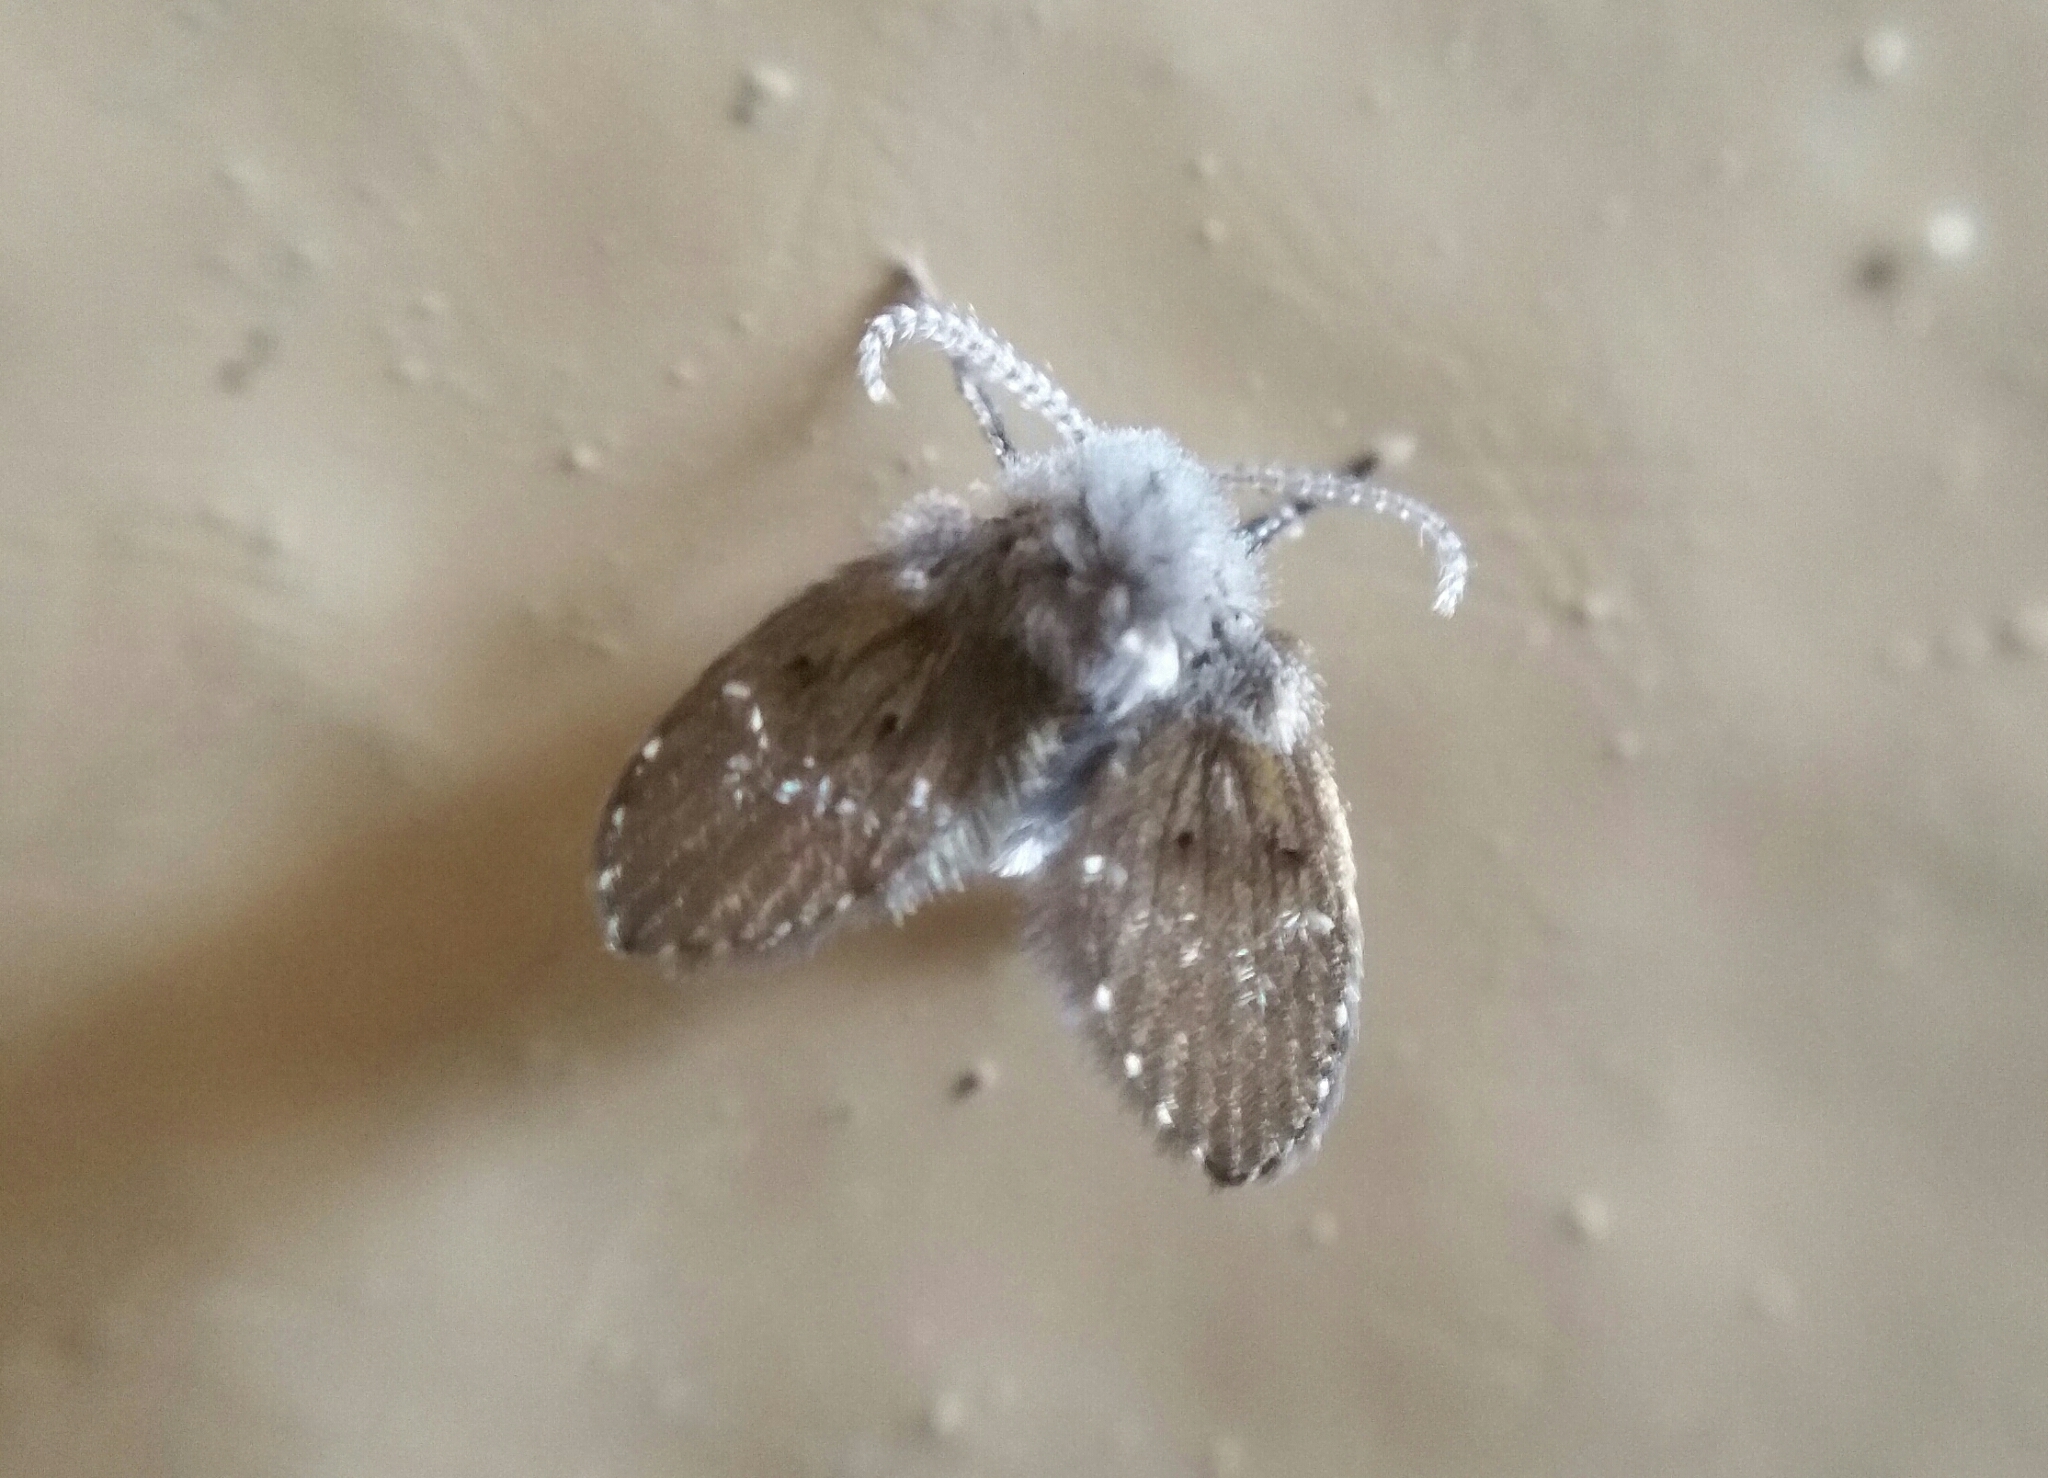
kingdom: Animalia
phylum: Arthropoda
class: Insecta
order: Diptera
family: Psychodidae
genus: Clogmia
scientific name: Clogmia albipunctatus
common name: White-spotted moth fly
